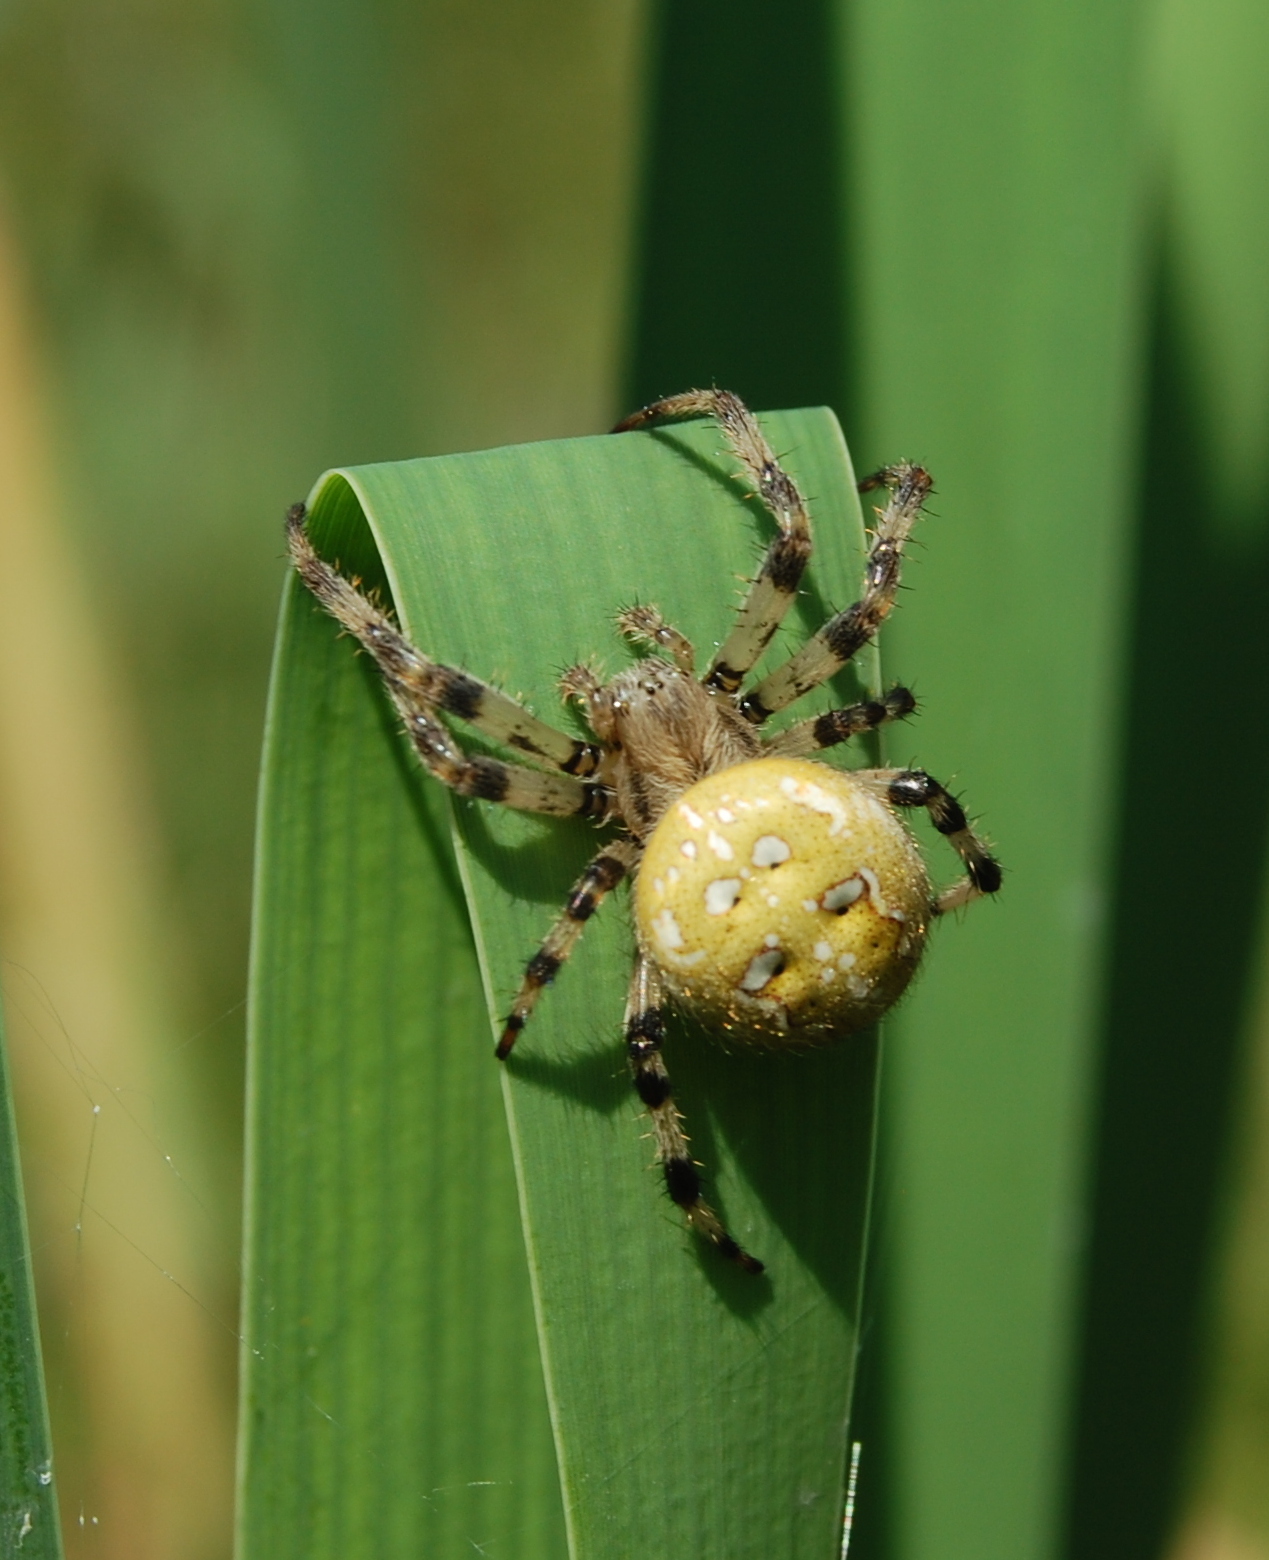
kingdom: Animalia
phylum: Arthropoda
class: Arachnida
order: Araneae
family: Araneidae
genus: Araneus
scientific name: Araneus quadratus
